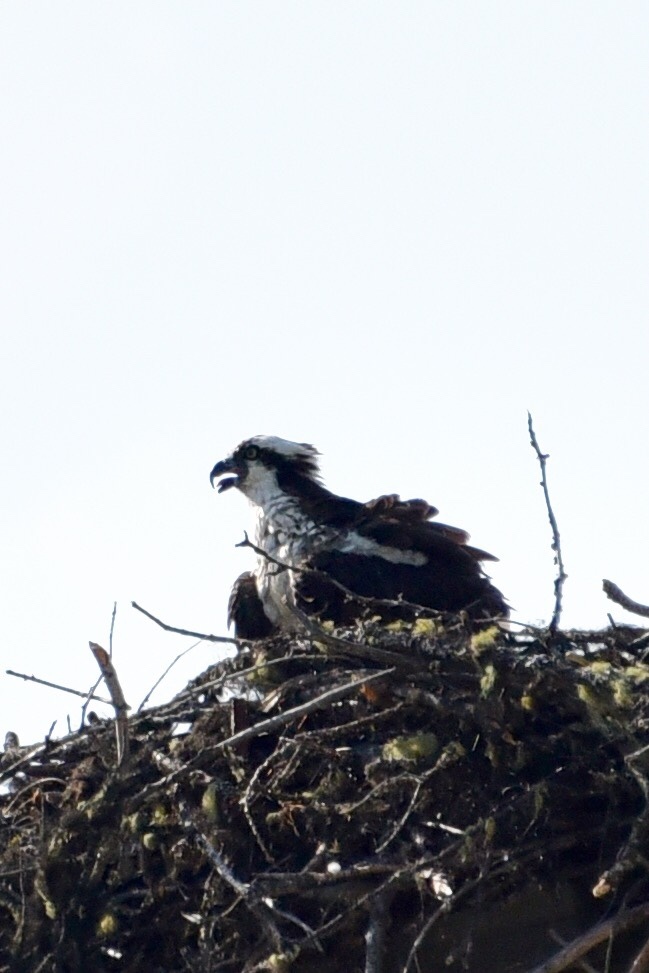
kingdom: Animalia
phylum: Chordata
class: Aves
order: Accipitriformes
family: Pandionidae
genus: Pandion
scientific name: Pandion haliaetus
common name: Osprey
